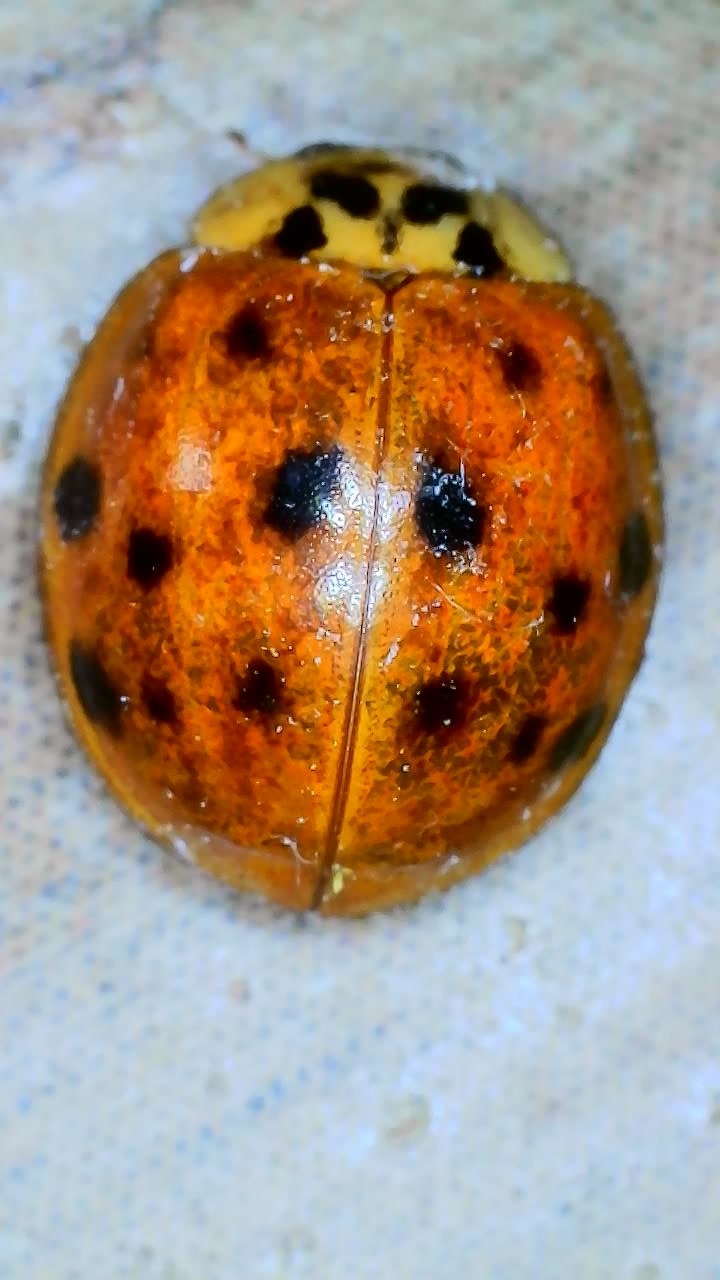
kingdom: Animalia
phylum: Arthropoda
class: Insecta
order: Coleoptera
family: Coccinellidae
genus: Harmonia
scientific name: Harmonia axyridis
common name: Harlequin ladybird
